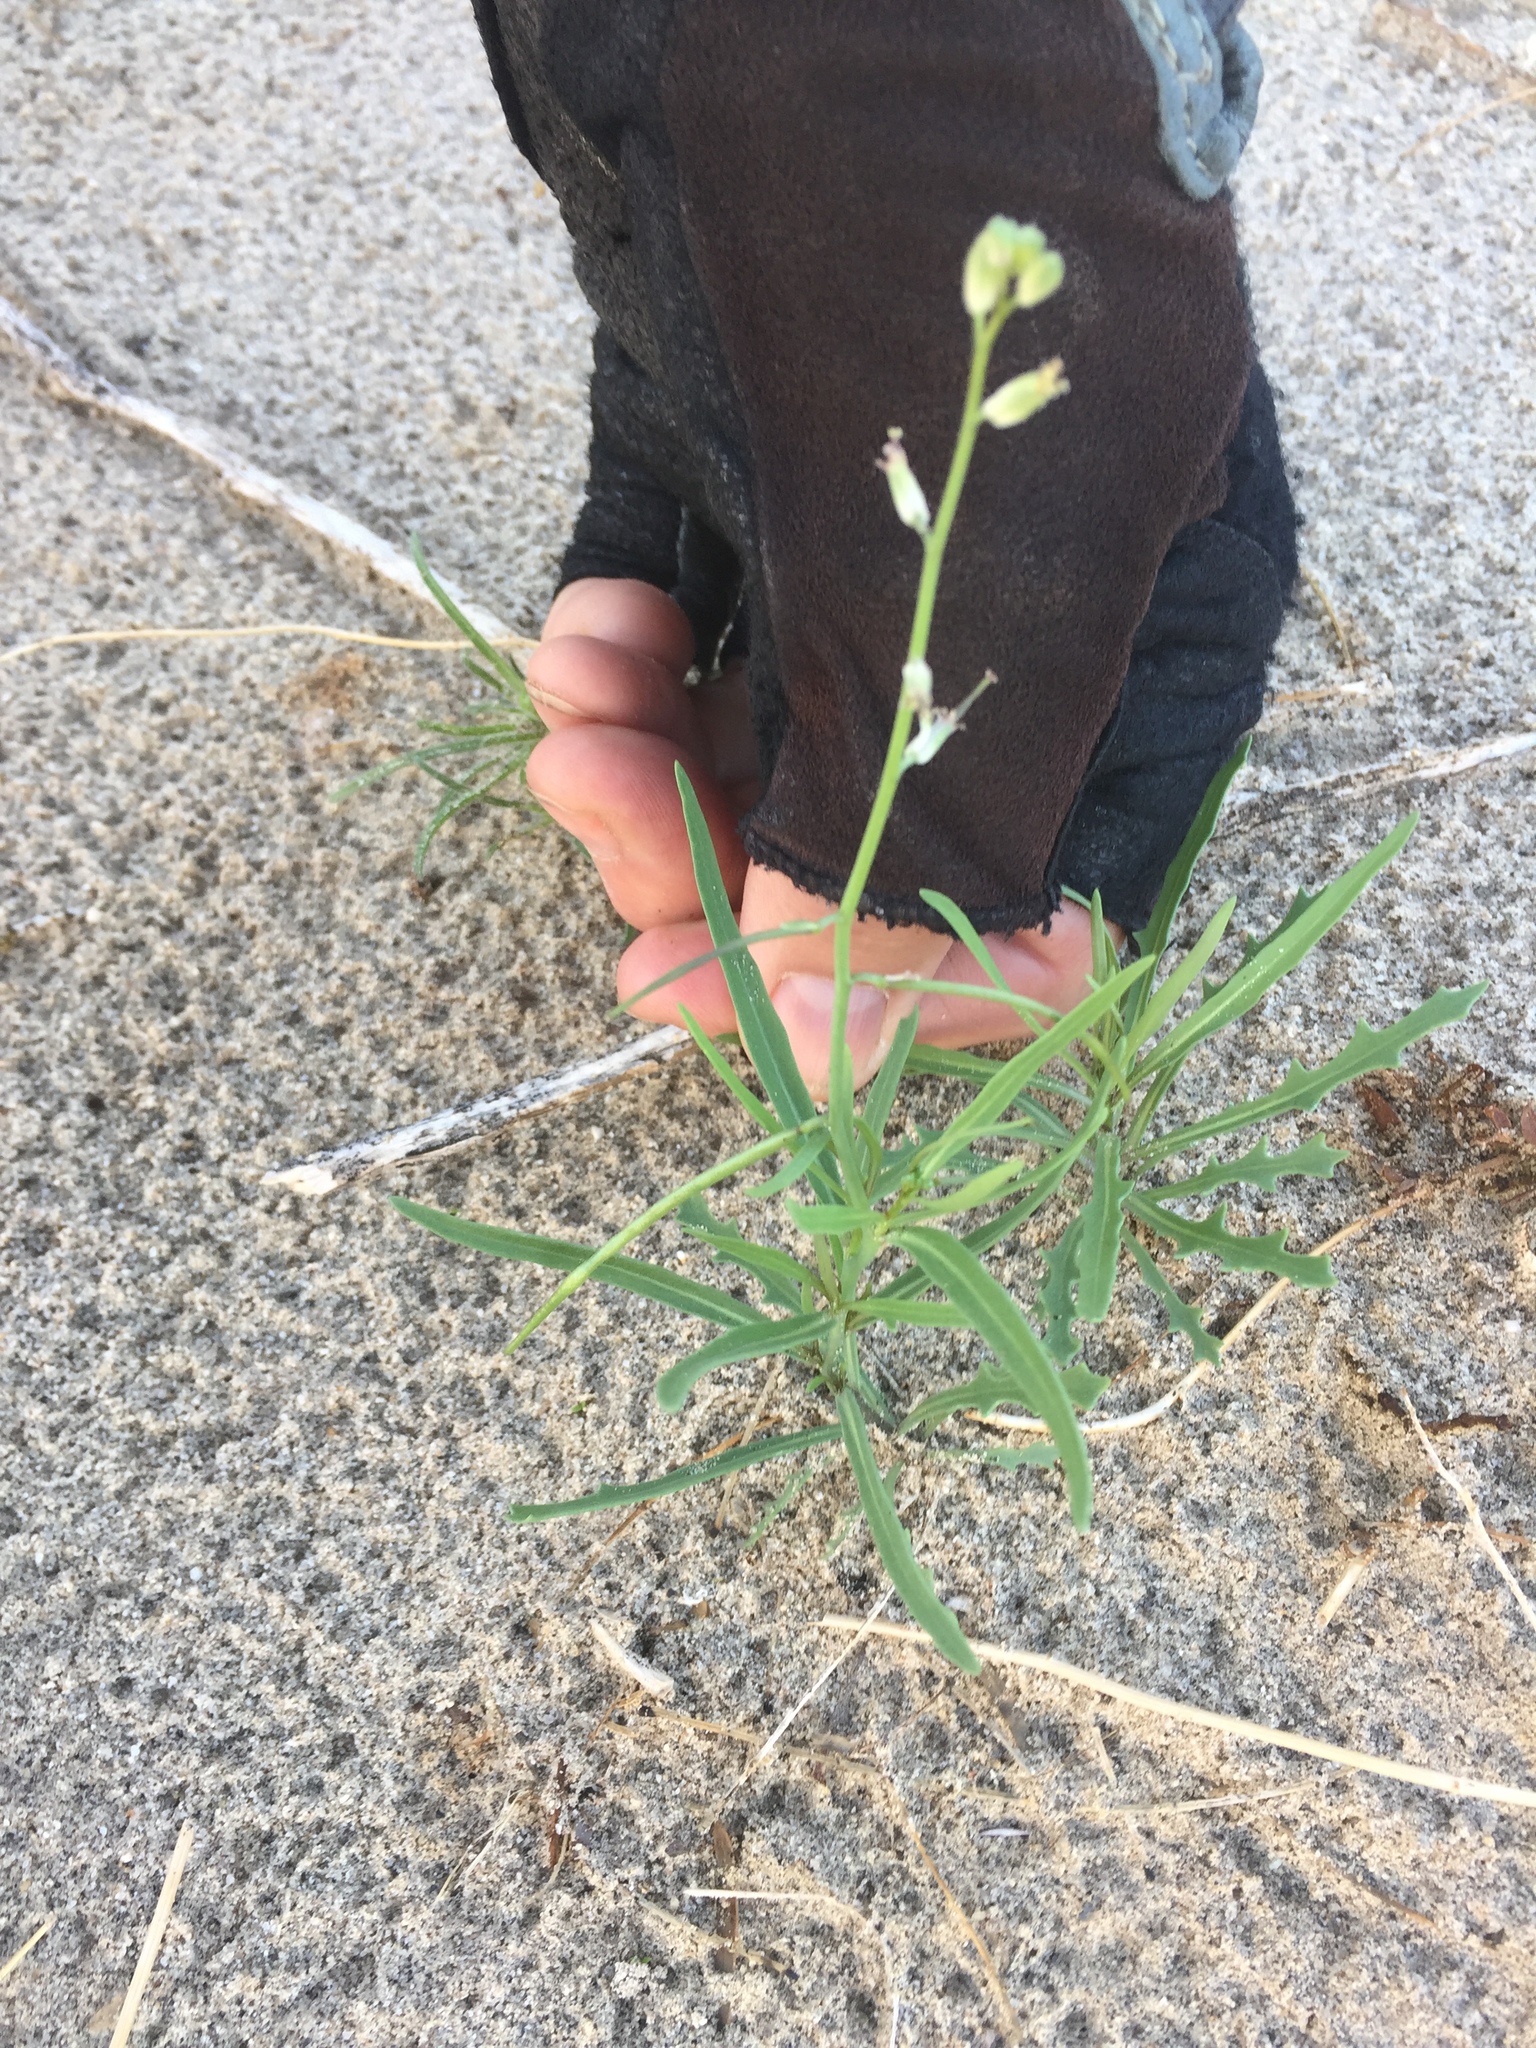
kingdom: Plantae
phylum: Tracheophyta
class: Magnoliopsida
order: Brassicales
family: Brassicaceae
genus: Streptanthus
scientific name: Streptanthus longirostris
